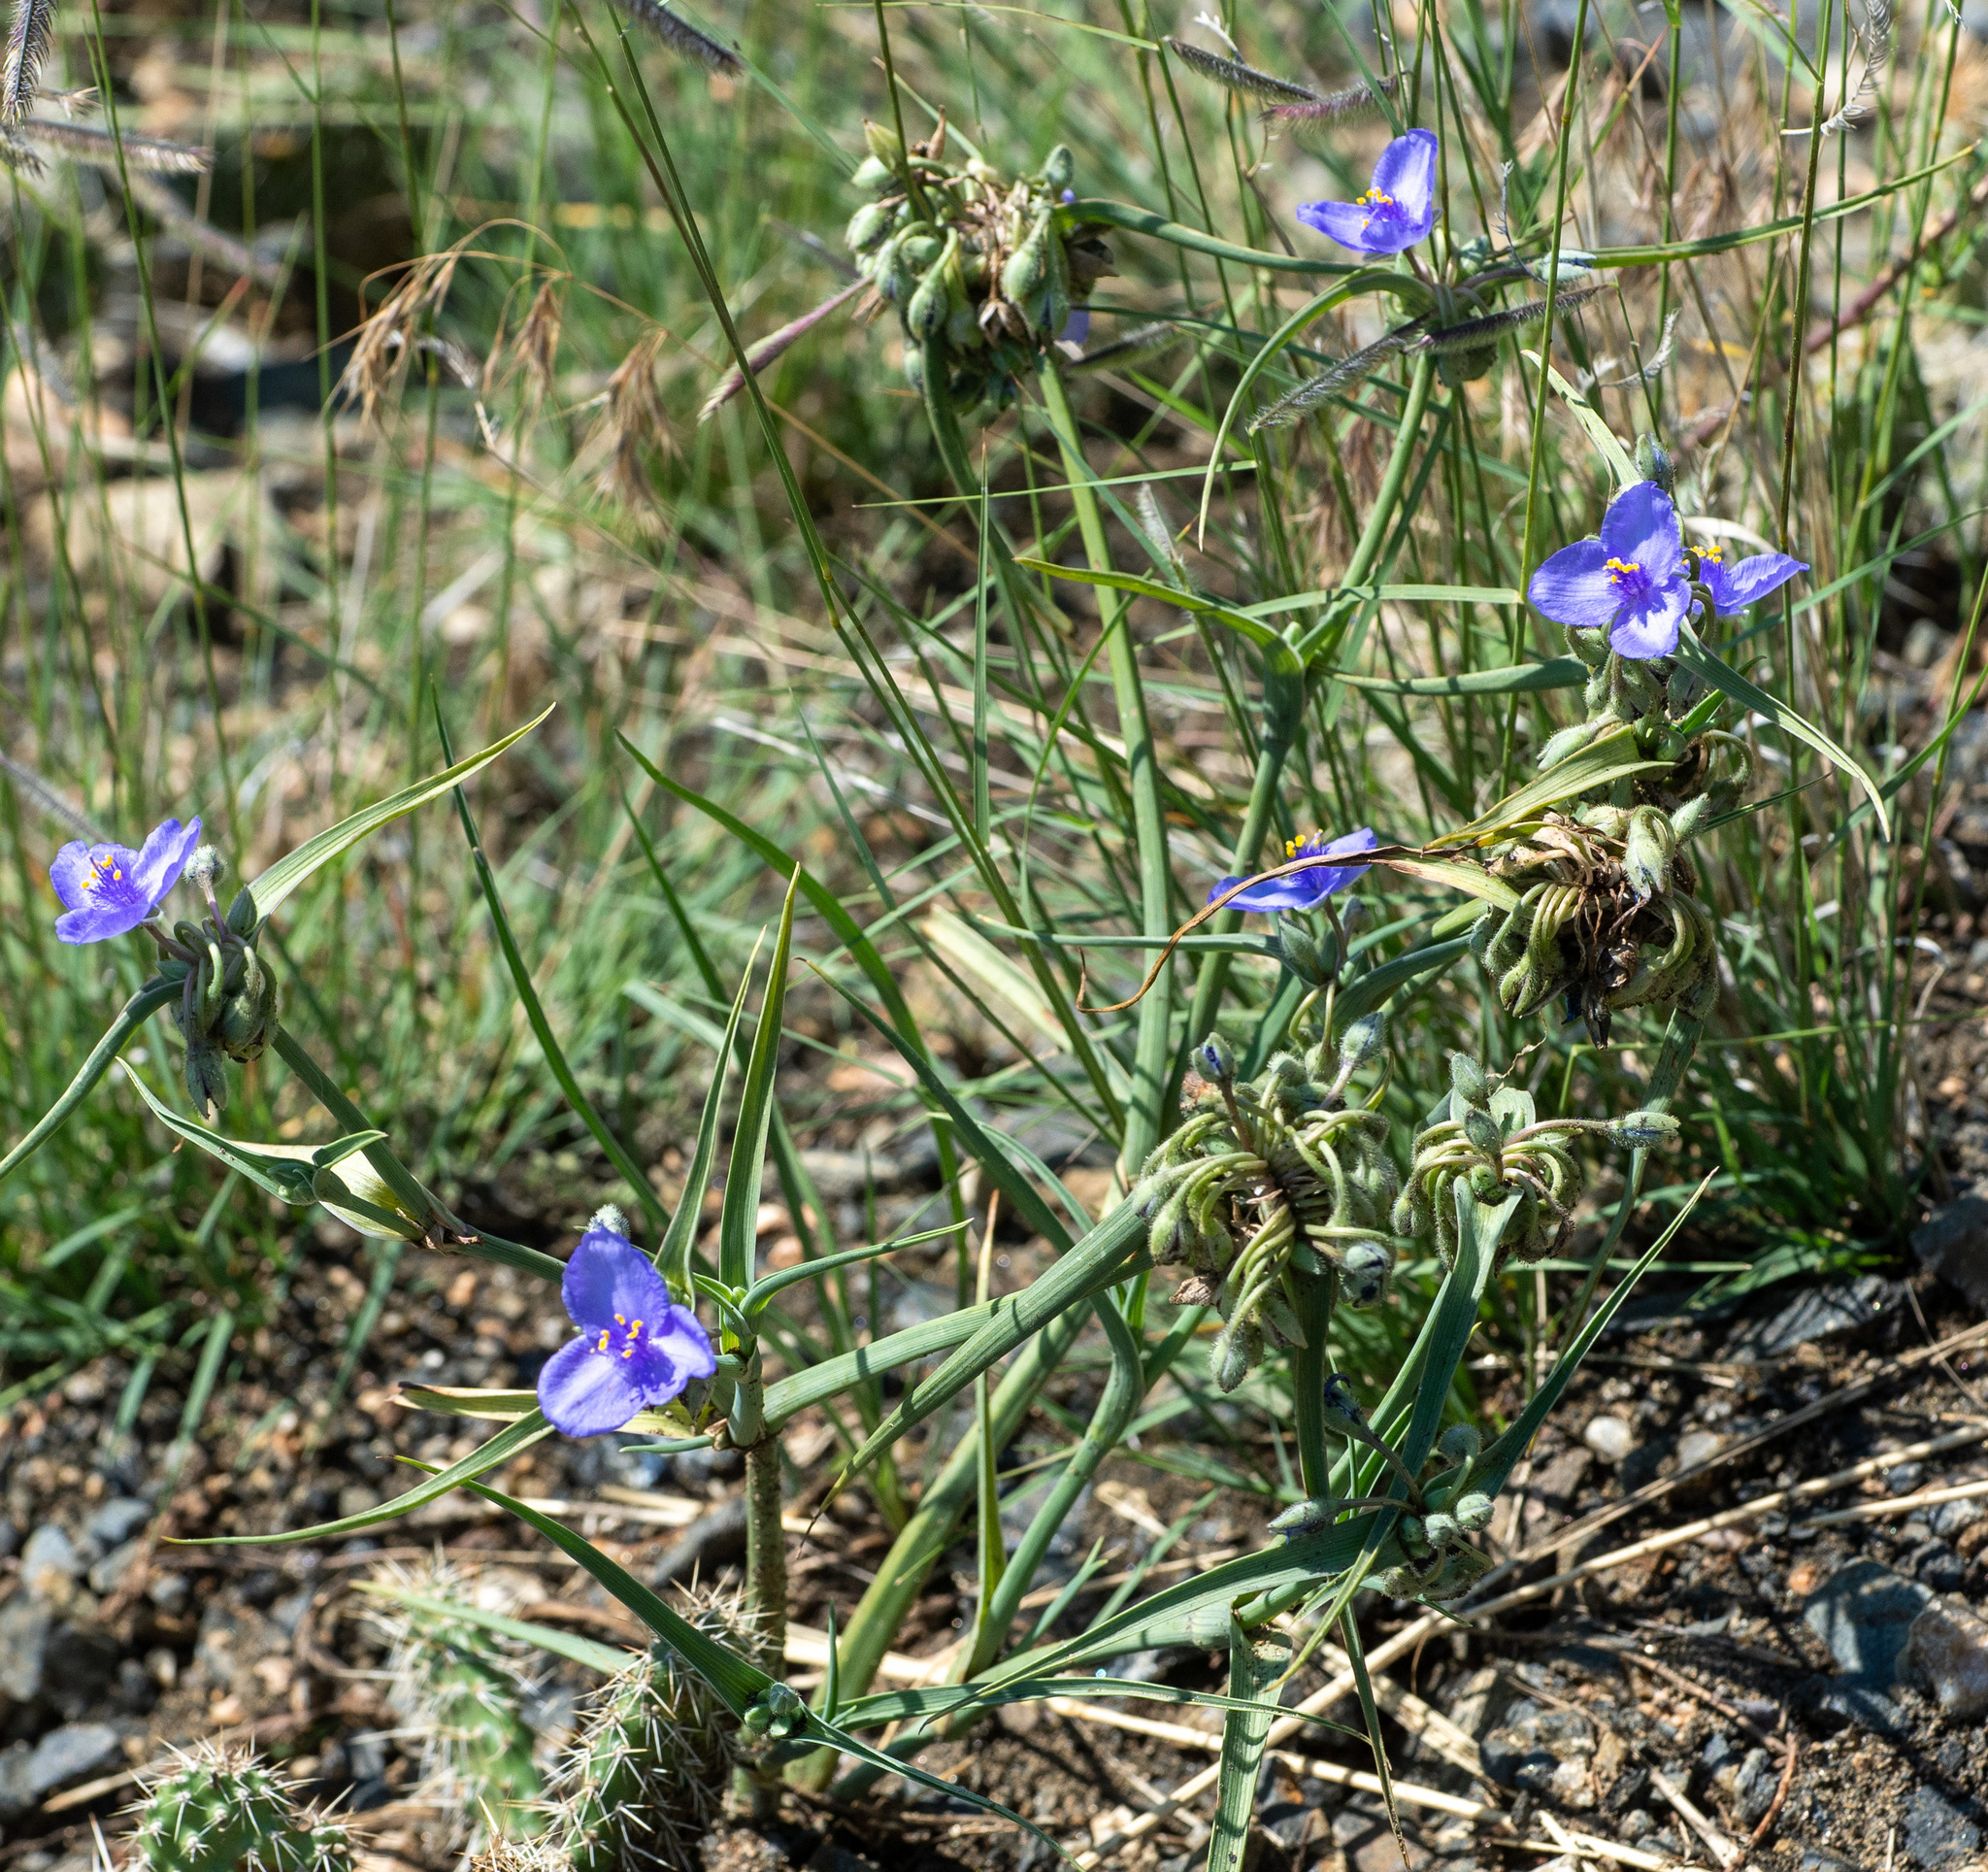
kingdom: Plantae
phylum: Tracheophyta
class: Liliopsida
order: Commelinales
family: Commelinaceae
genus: Tradescantia
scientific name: Tradescantia occidentalis
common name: Prairie spiderwort
